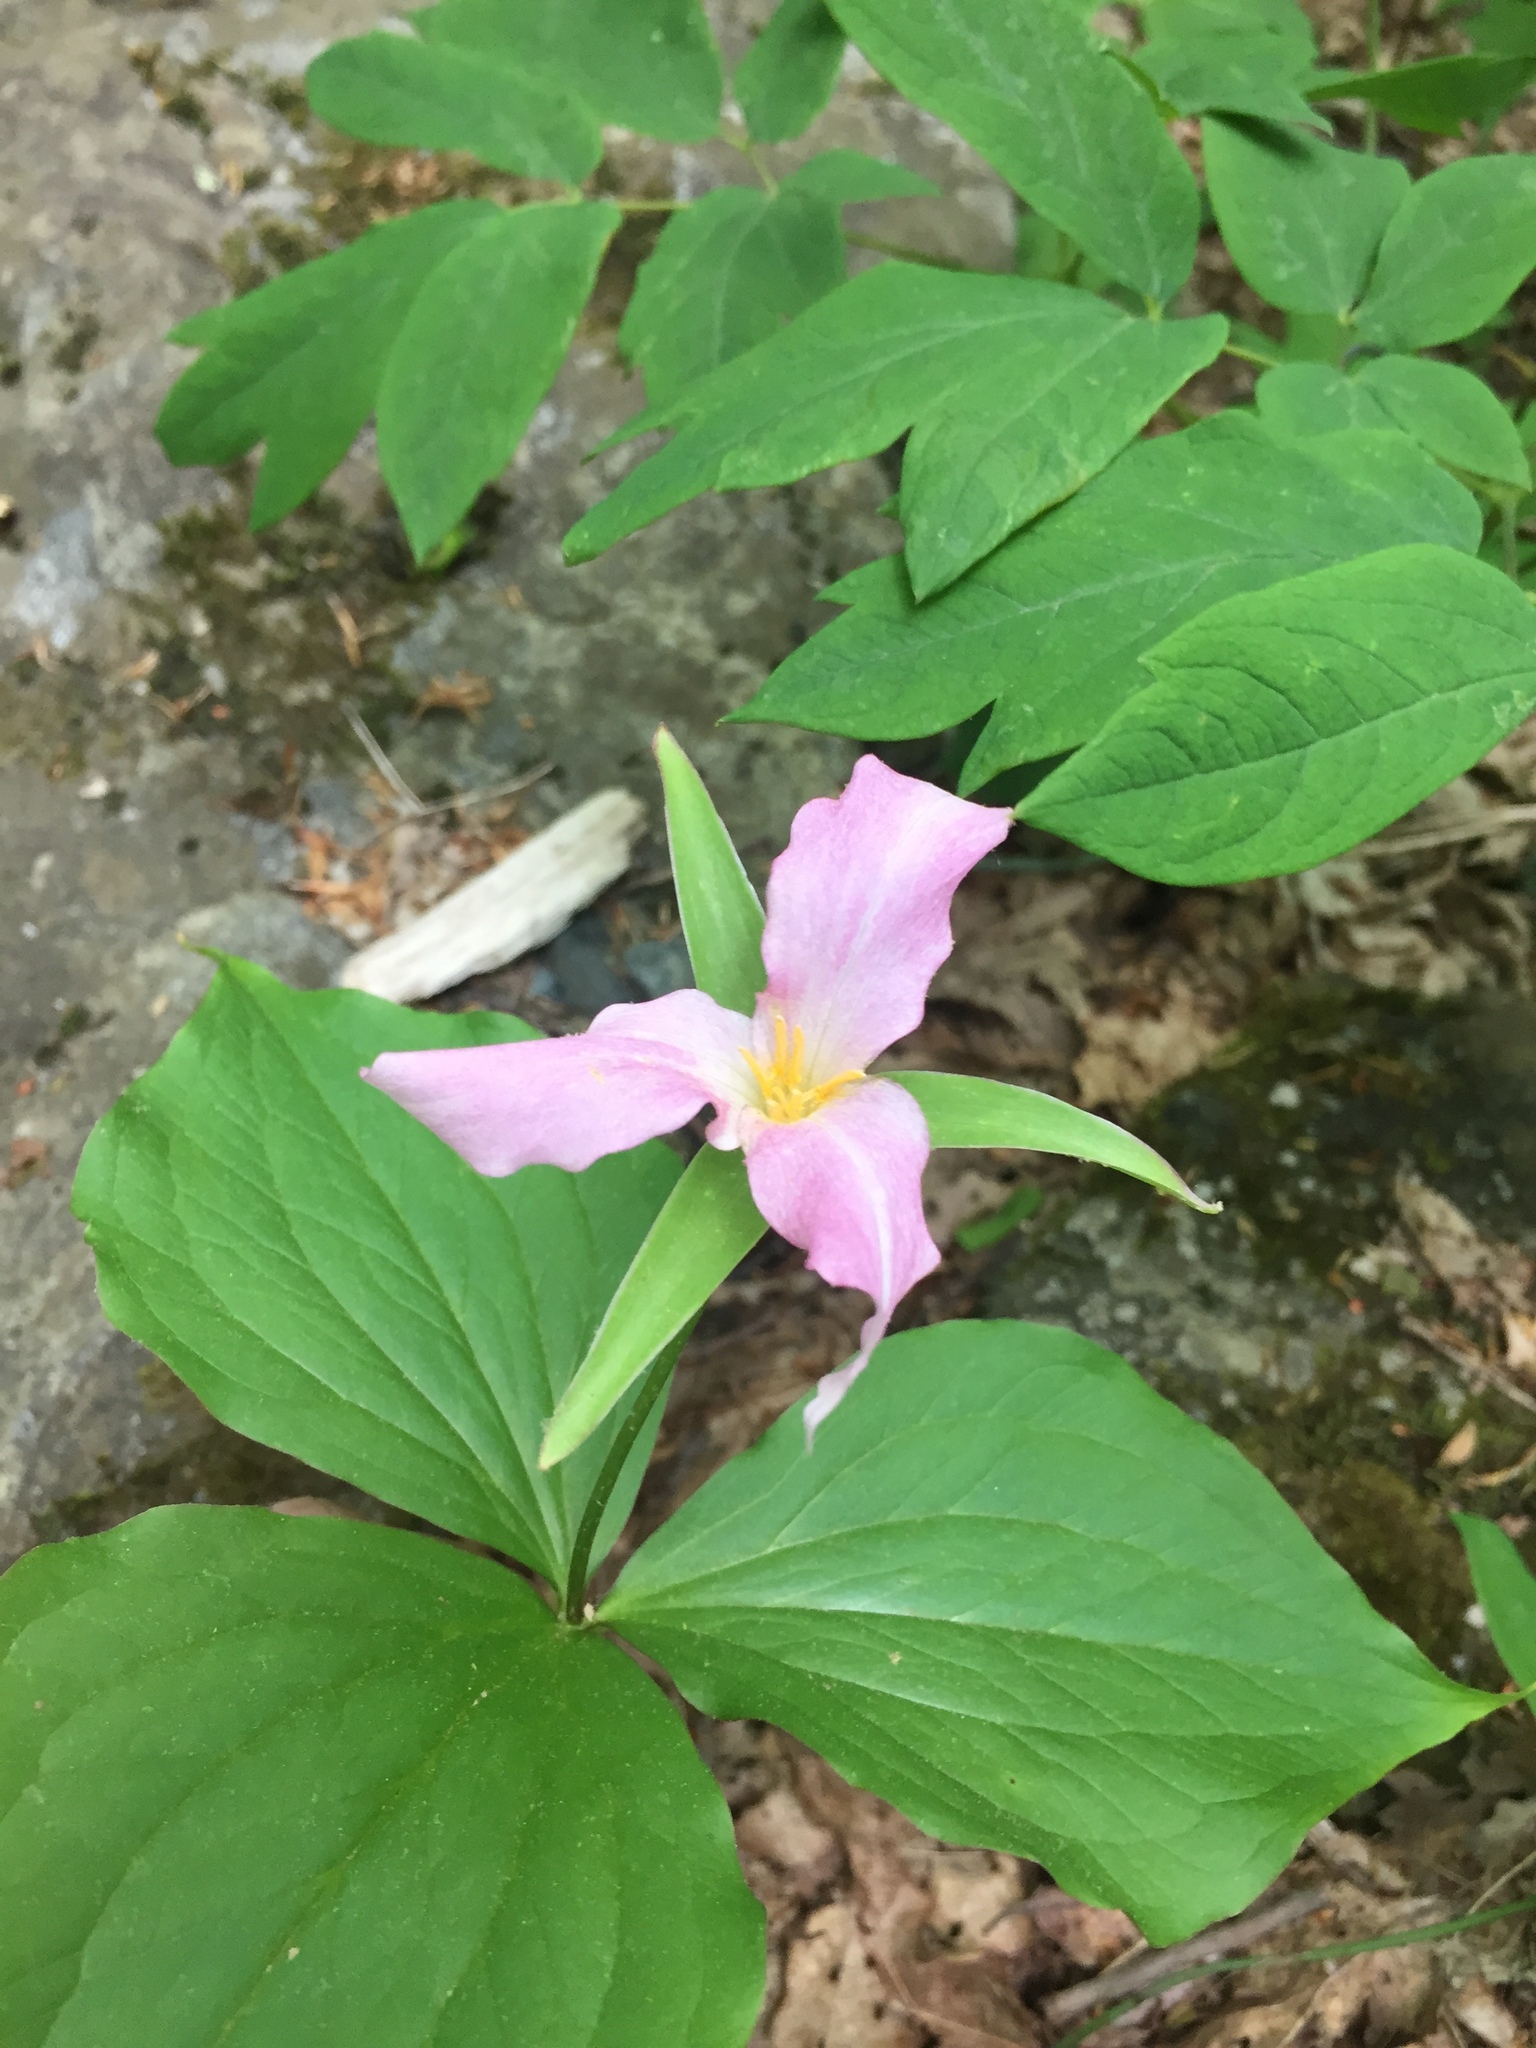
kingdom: Plantae
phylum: Tracheophyta
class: Liliopsida
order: Liliales
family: Melanthiaceae
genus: Trillium
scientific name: Trillium grandiflorum
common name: Great white trillium
